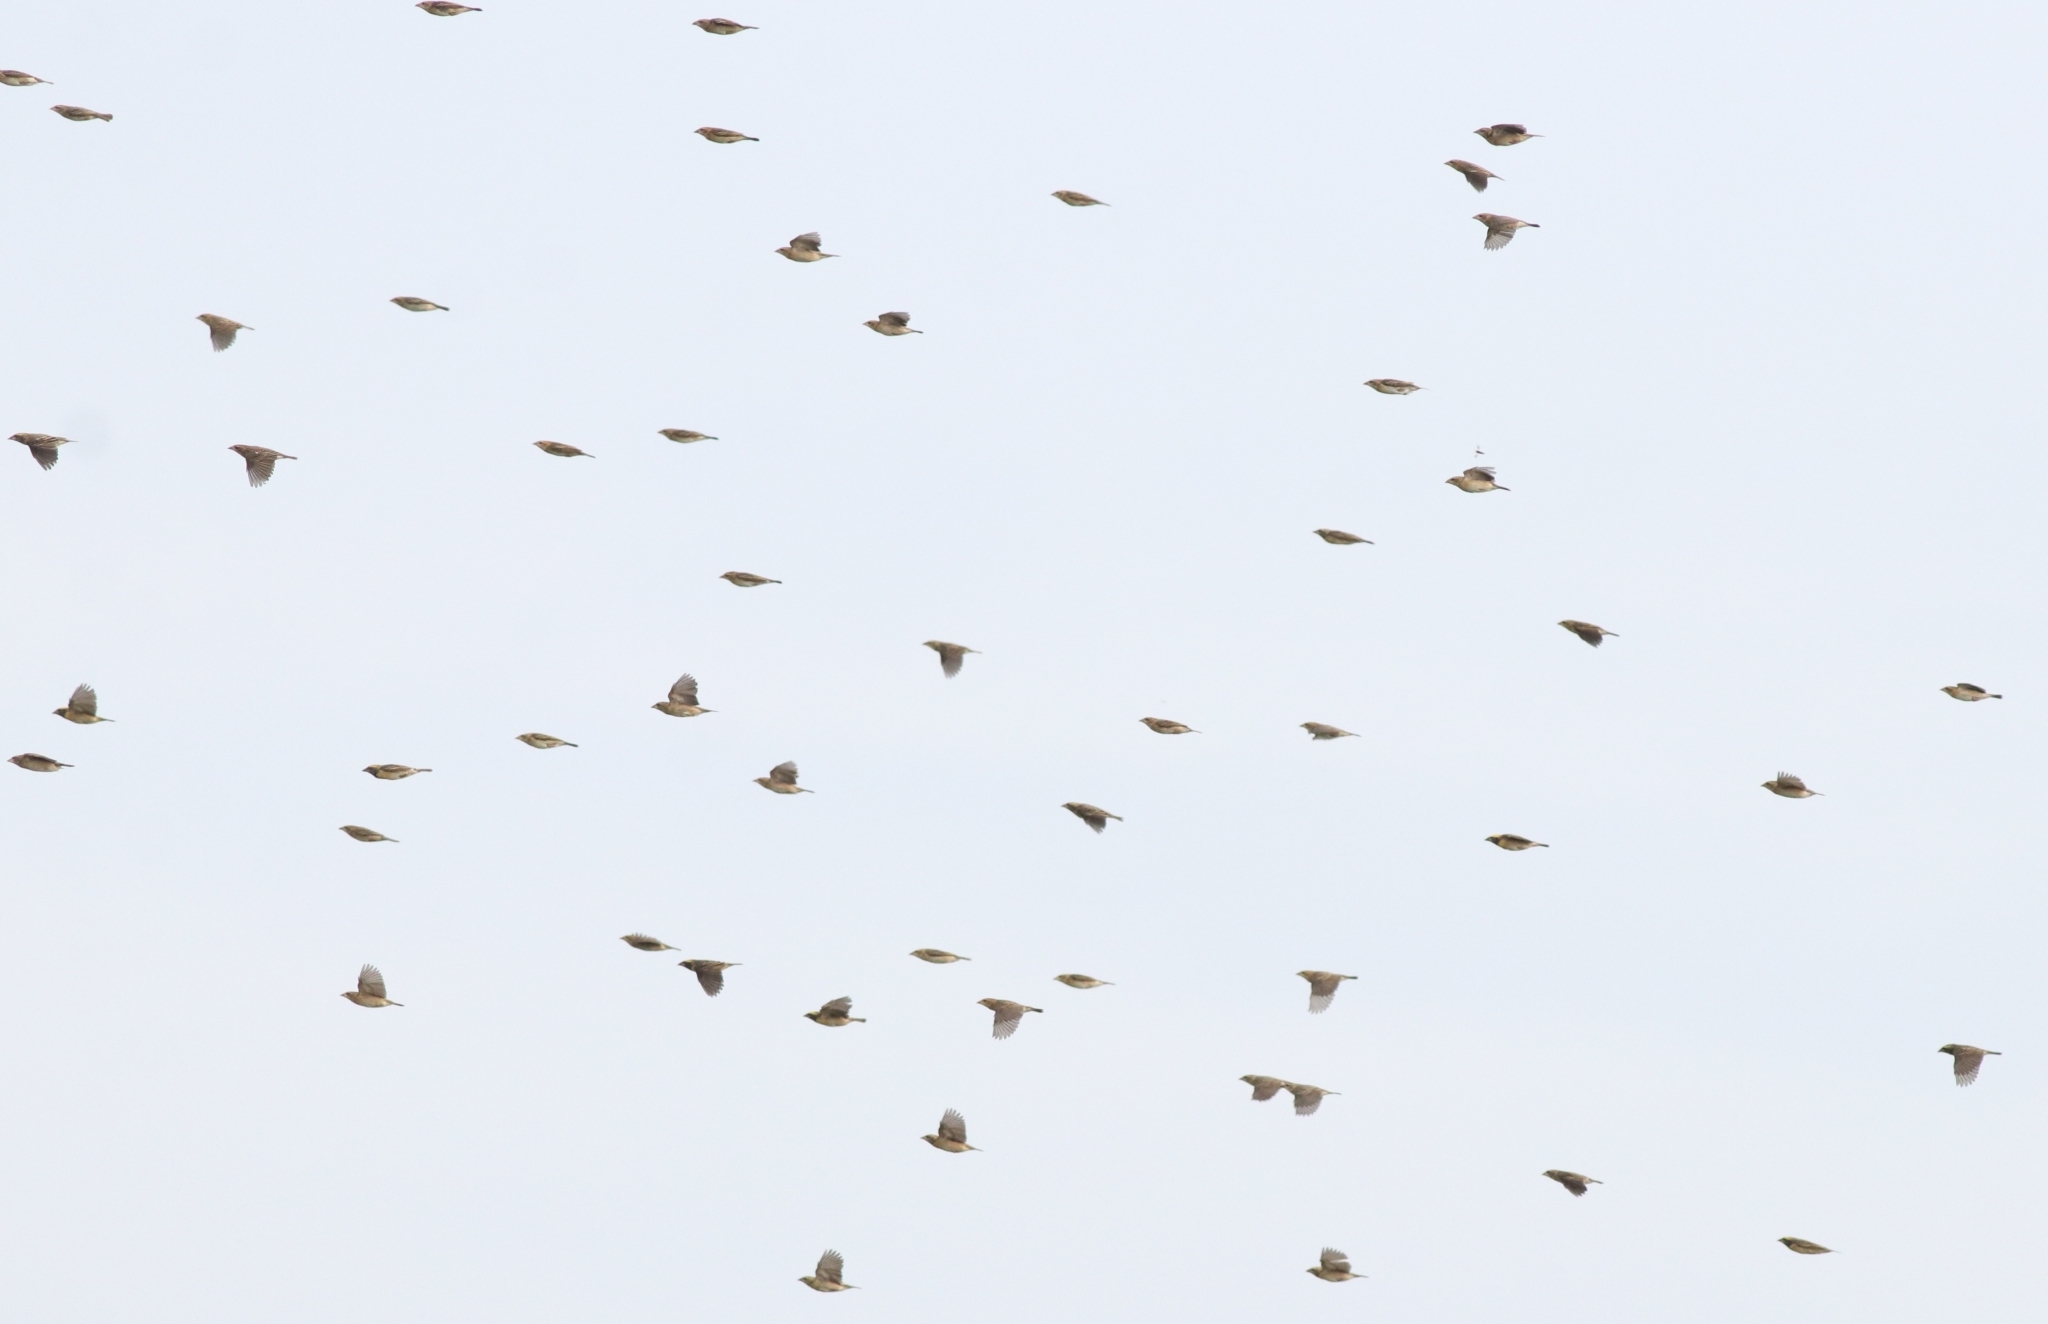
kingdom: Animalia
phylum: Chordata
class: Aves
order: Passeriformes
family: Ploceidae
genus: Ploceus
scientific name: Ploceus philippinus
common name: Baya weaver
